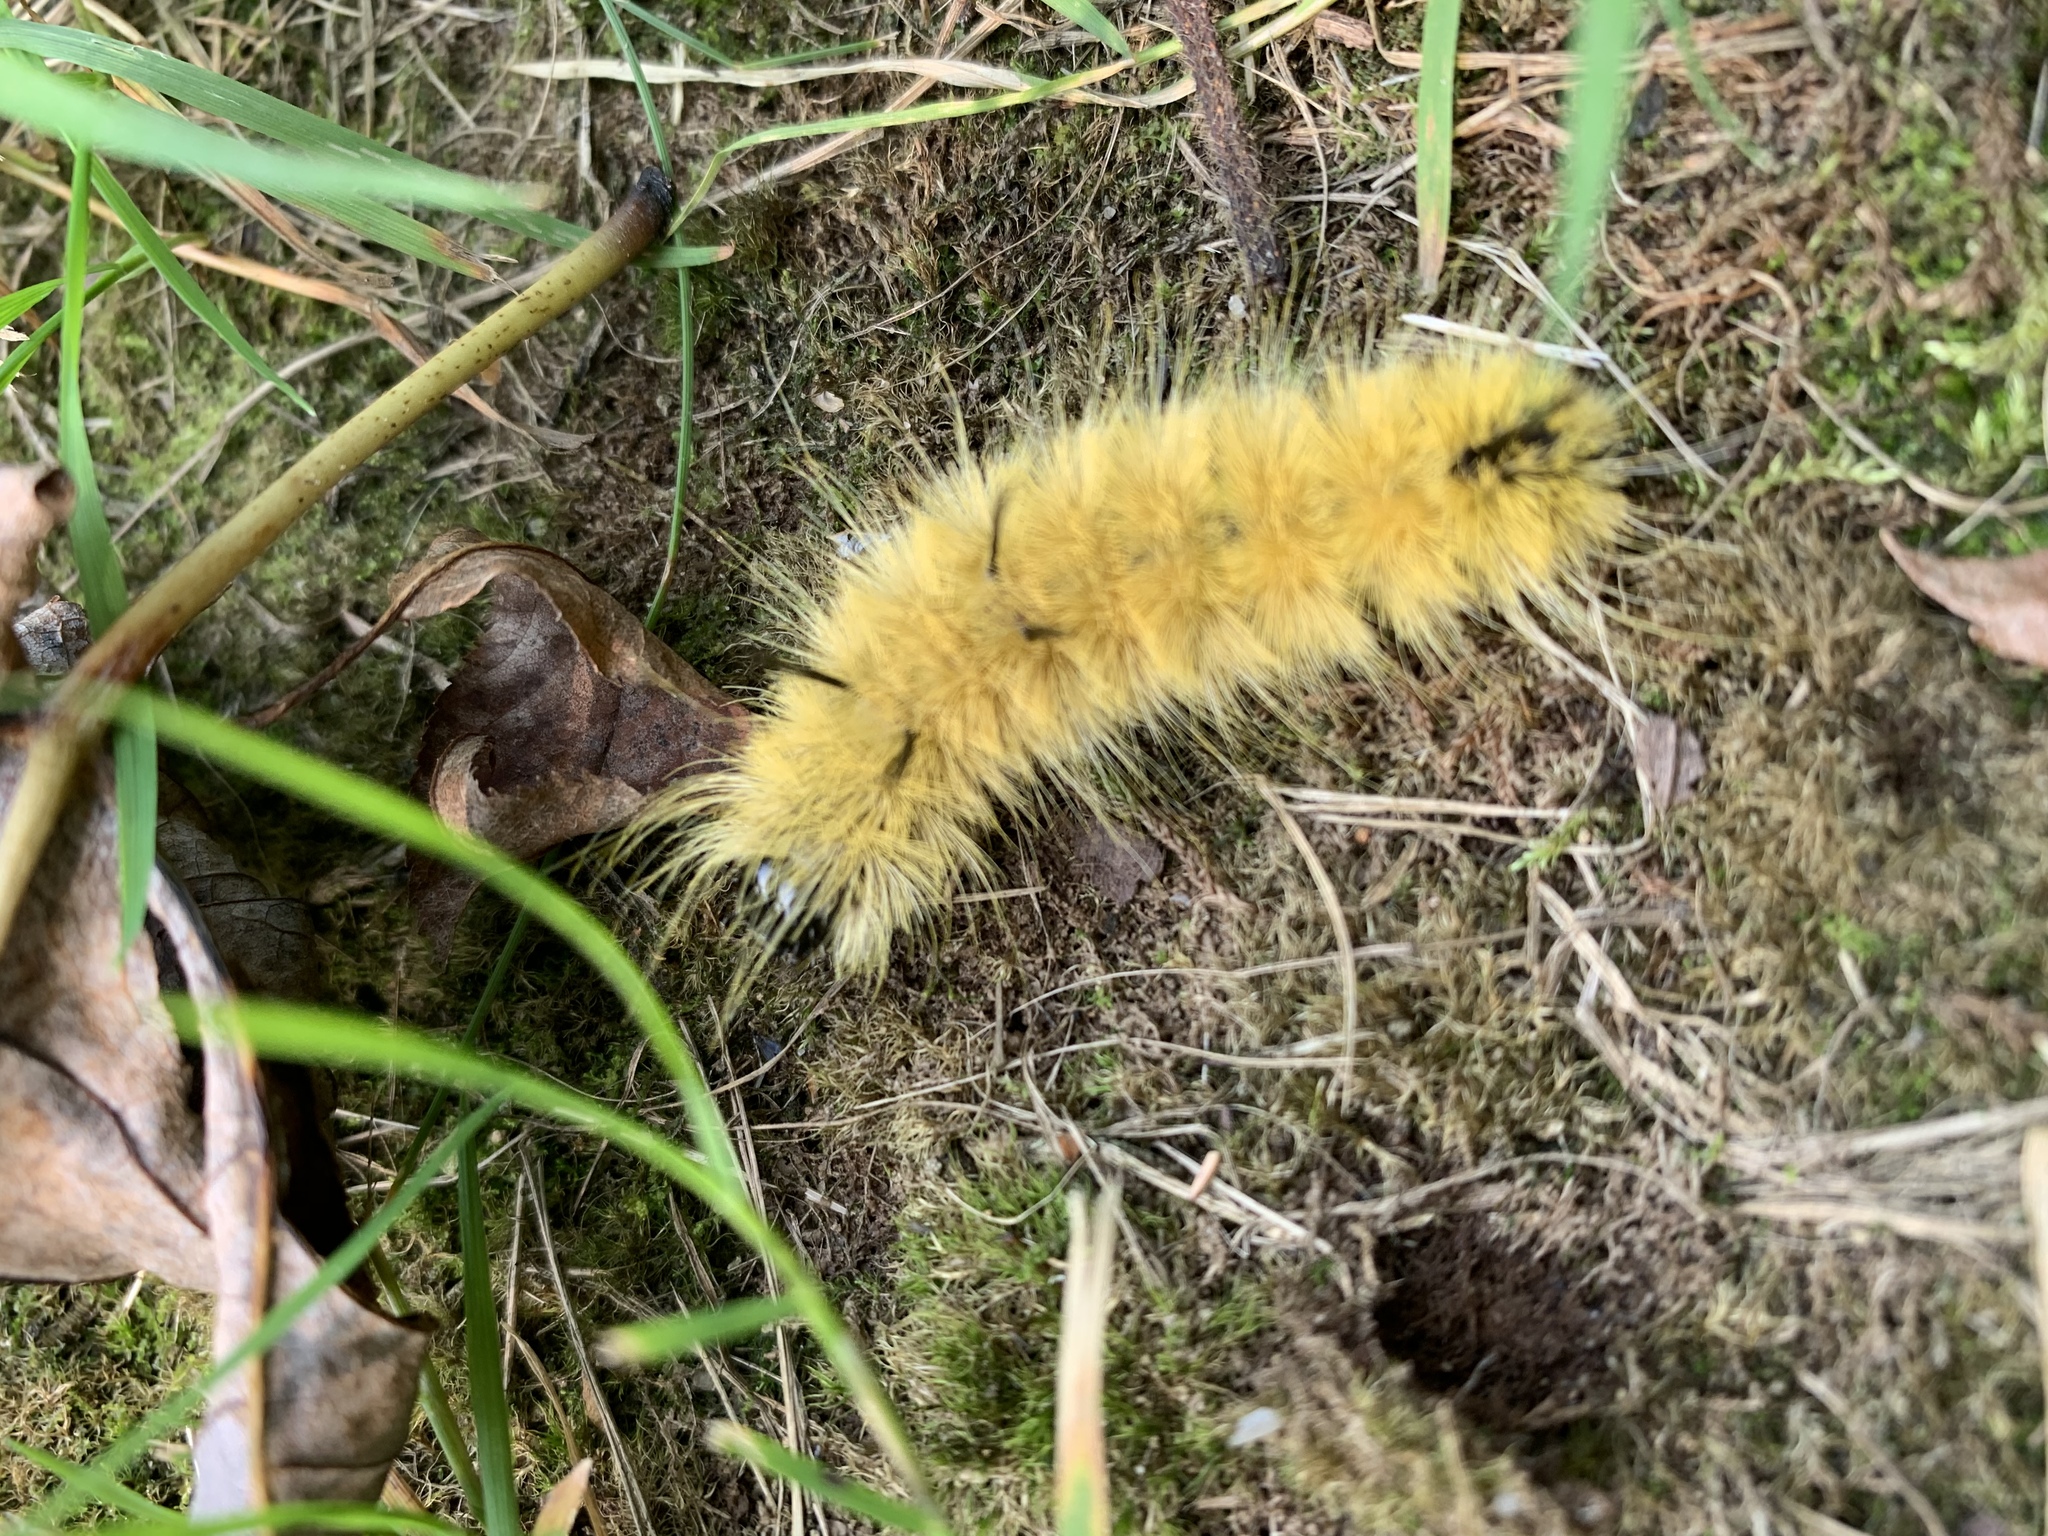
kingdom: Animalia
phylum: Arthropoda
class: Insecta
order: Lepidoptera
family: Noctuidae
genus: Acronicta
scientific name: Acronicta americana
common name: American dagger
